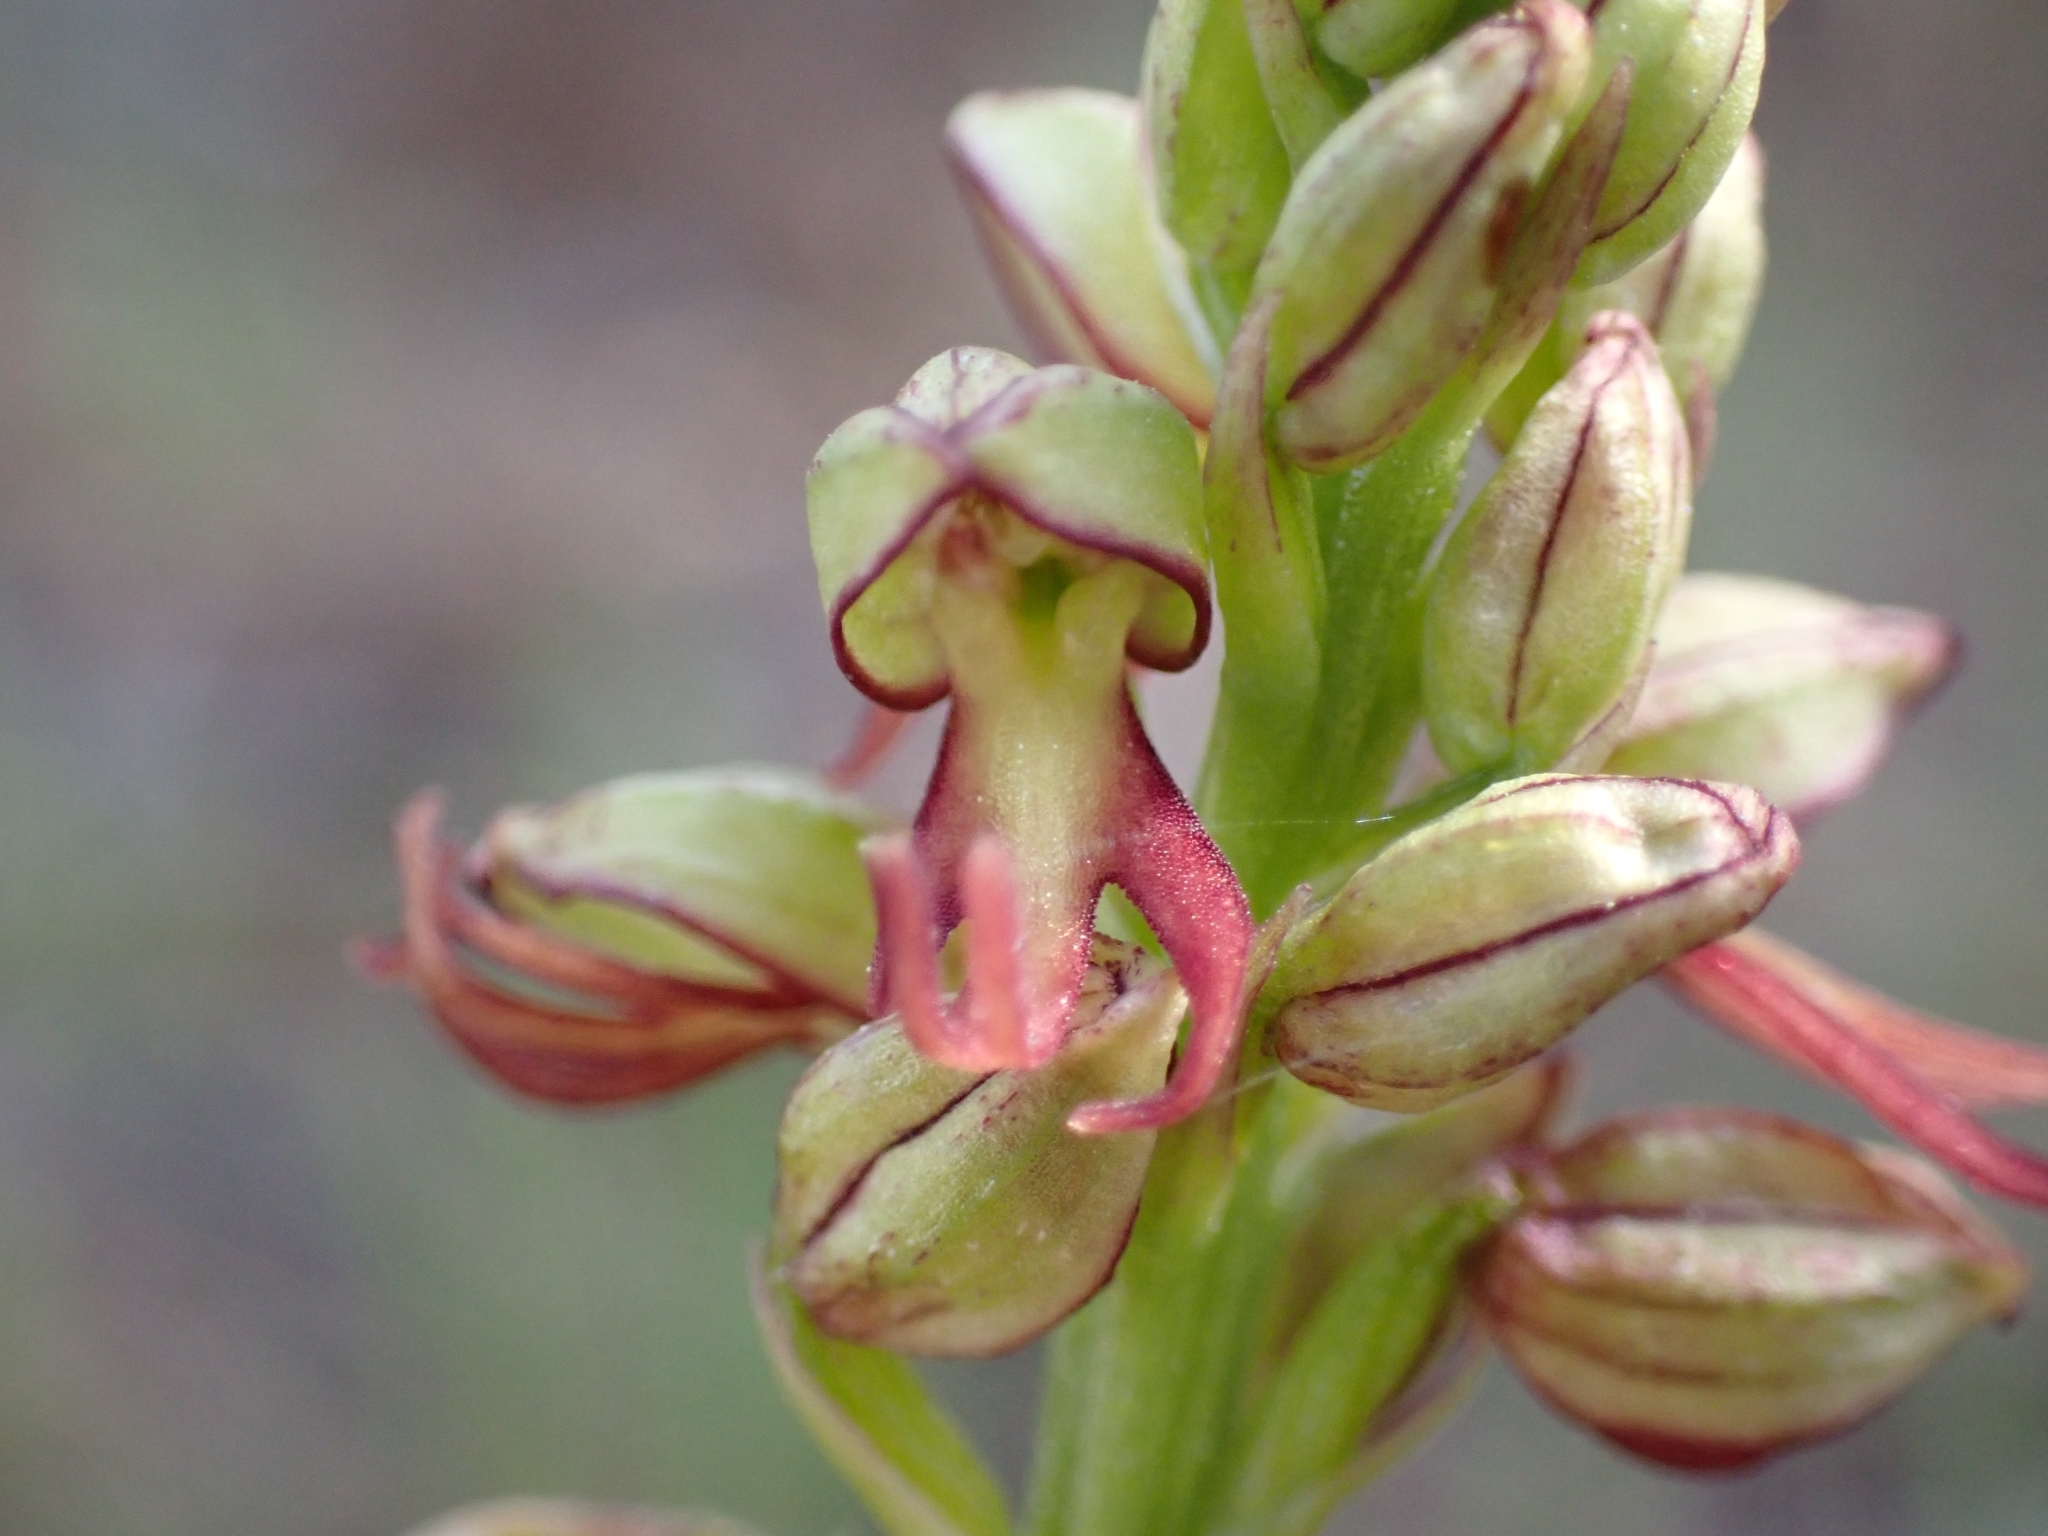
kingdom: Plantae
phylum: Tracheophyta
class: Liliopsida
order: Asparagales
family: Orchidaceae
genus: Orchis
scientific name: Orchis anthropophora
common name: Man orchid
